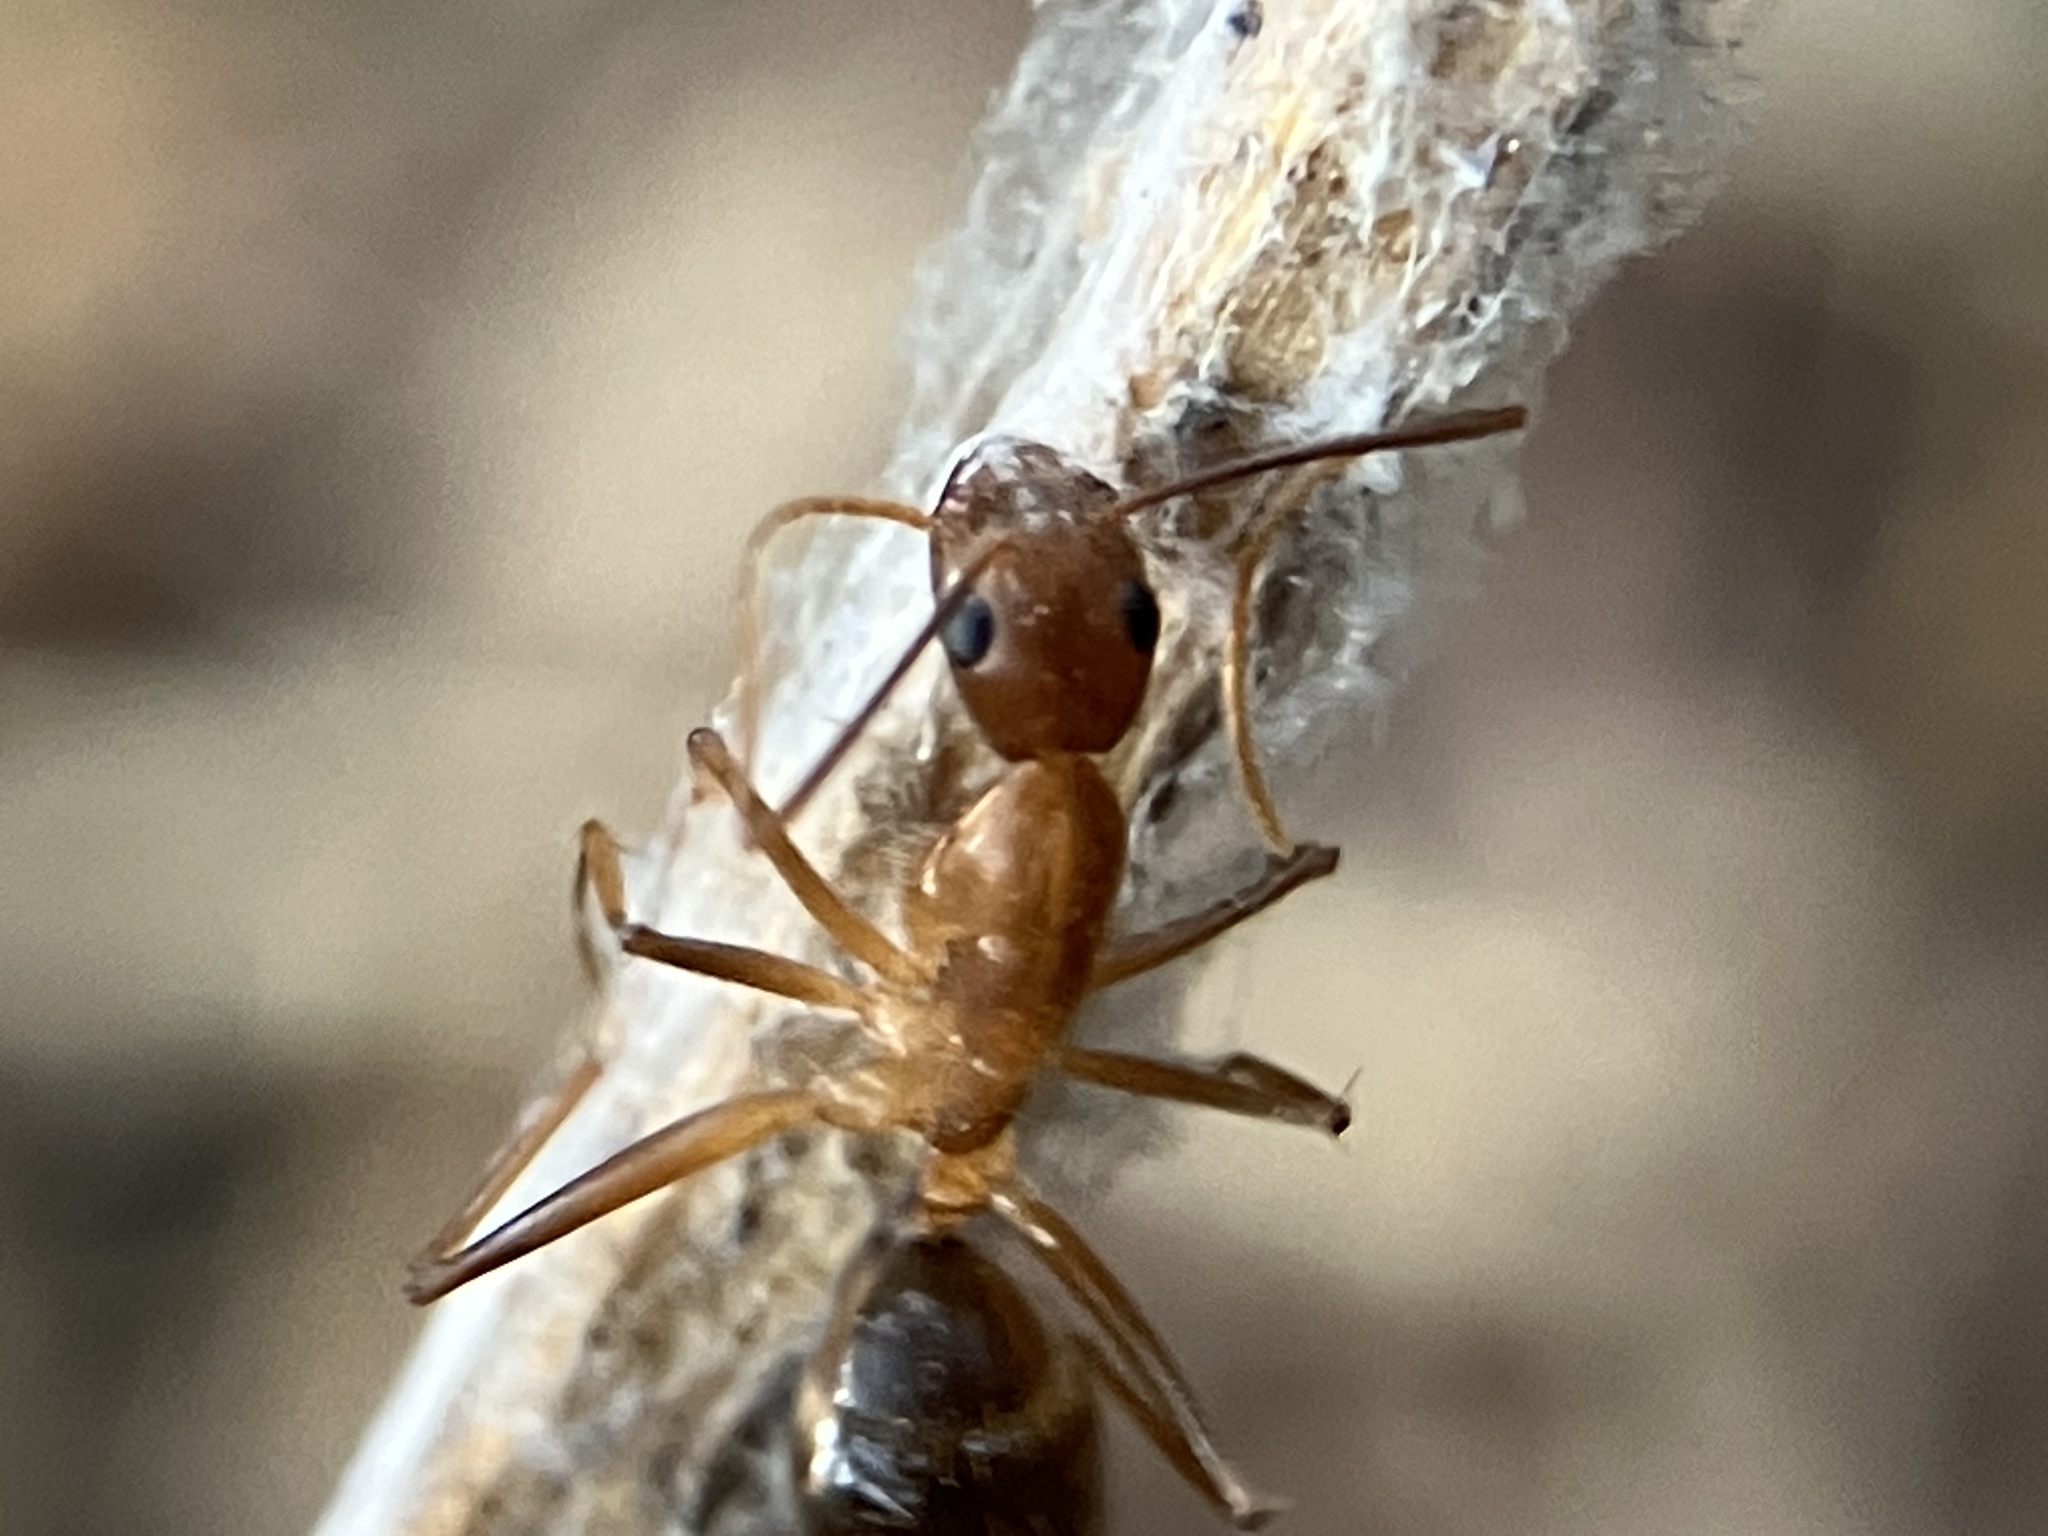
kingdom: Animalia
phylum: Arthropoda
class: Insecta
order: Hymenoptera
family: Formicidae
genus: Camponotus
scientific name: Camponotus irritans
